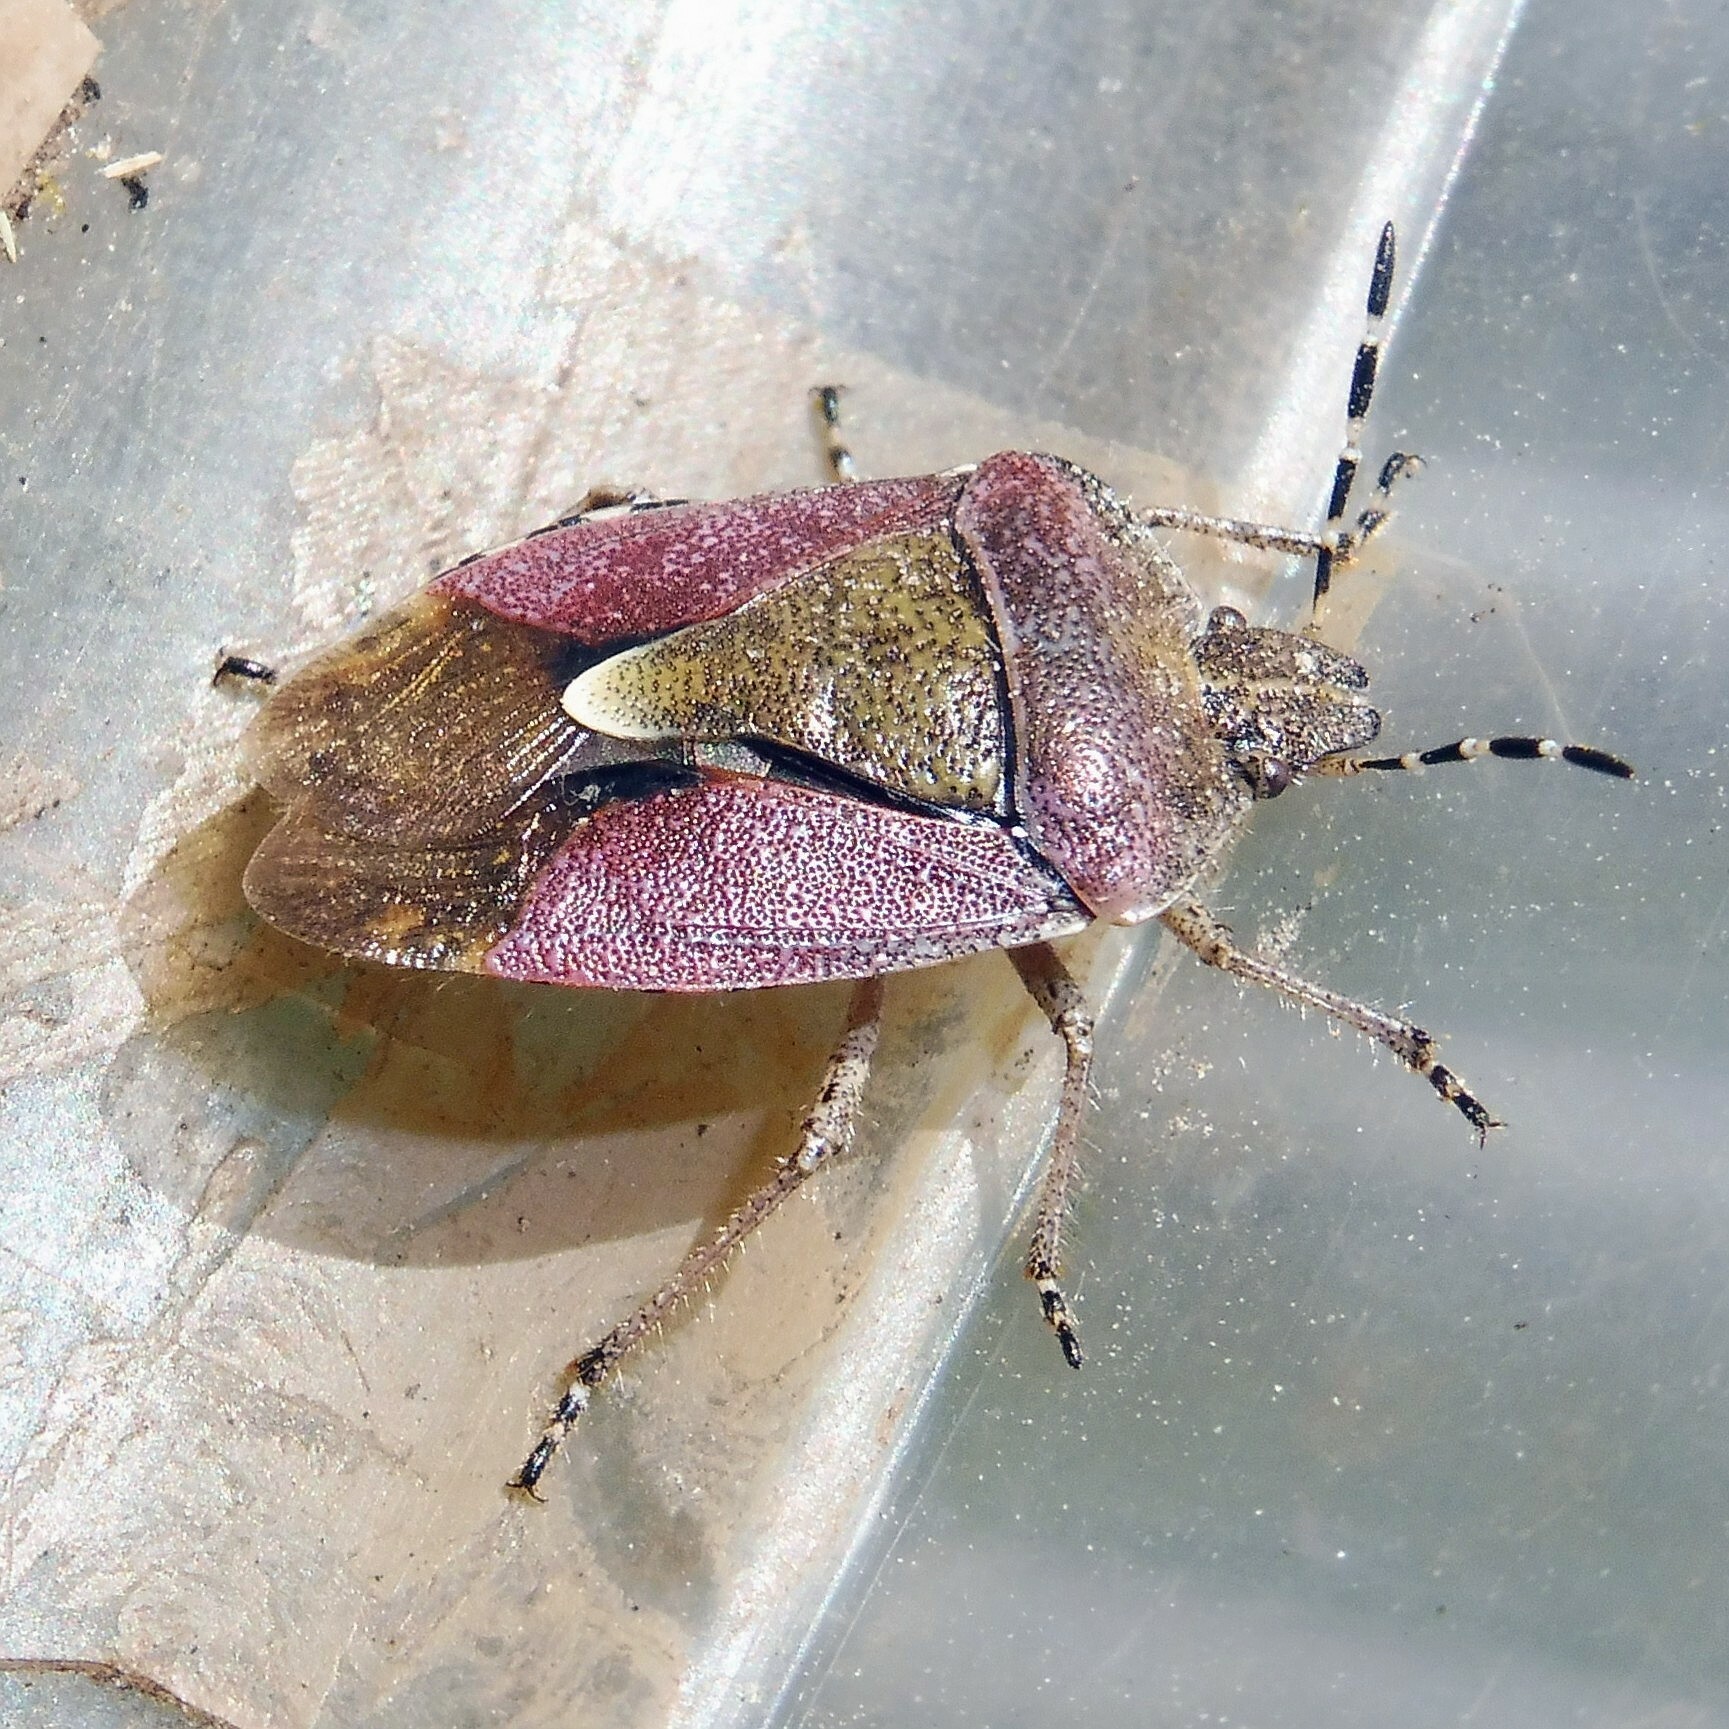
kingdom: Animalia
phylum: Arthropoda
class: Insecta
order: Hemiptera
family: Pentatomidae
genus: Dolycoris
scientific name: Dolycoris baccarum
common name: Sloe bug
